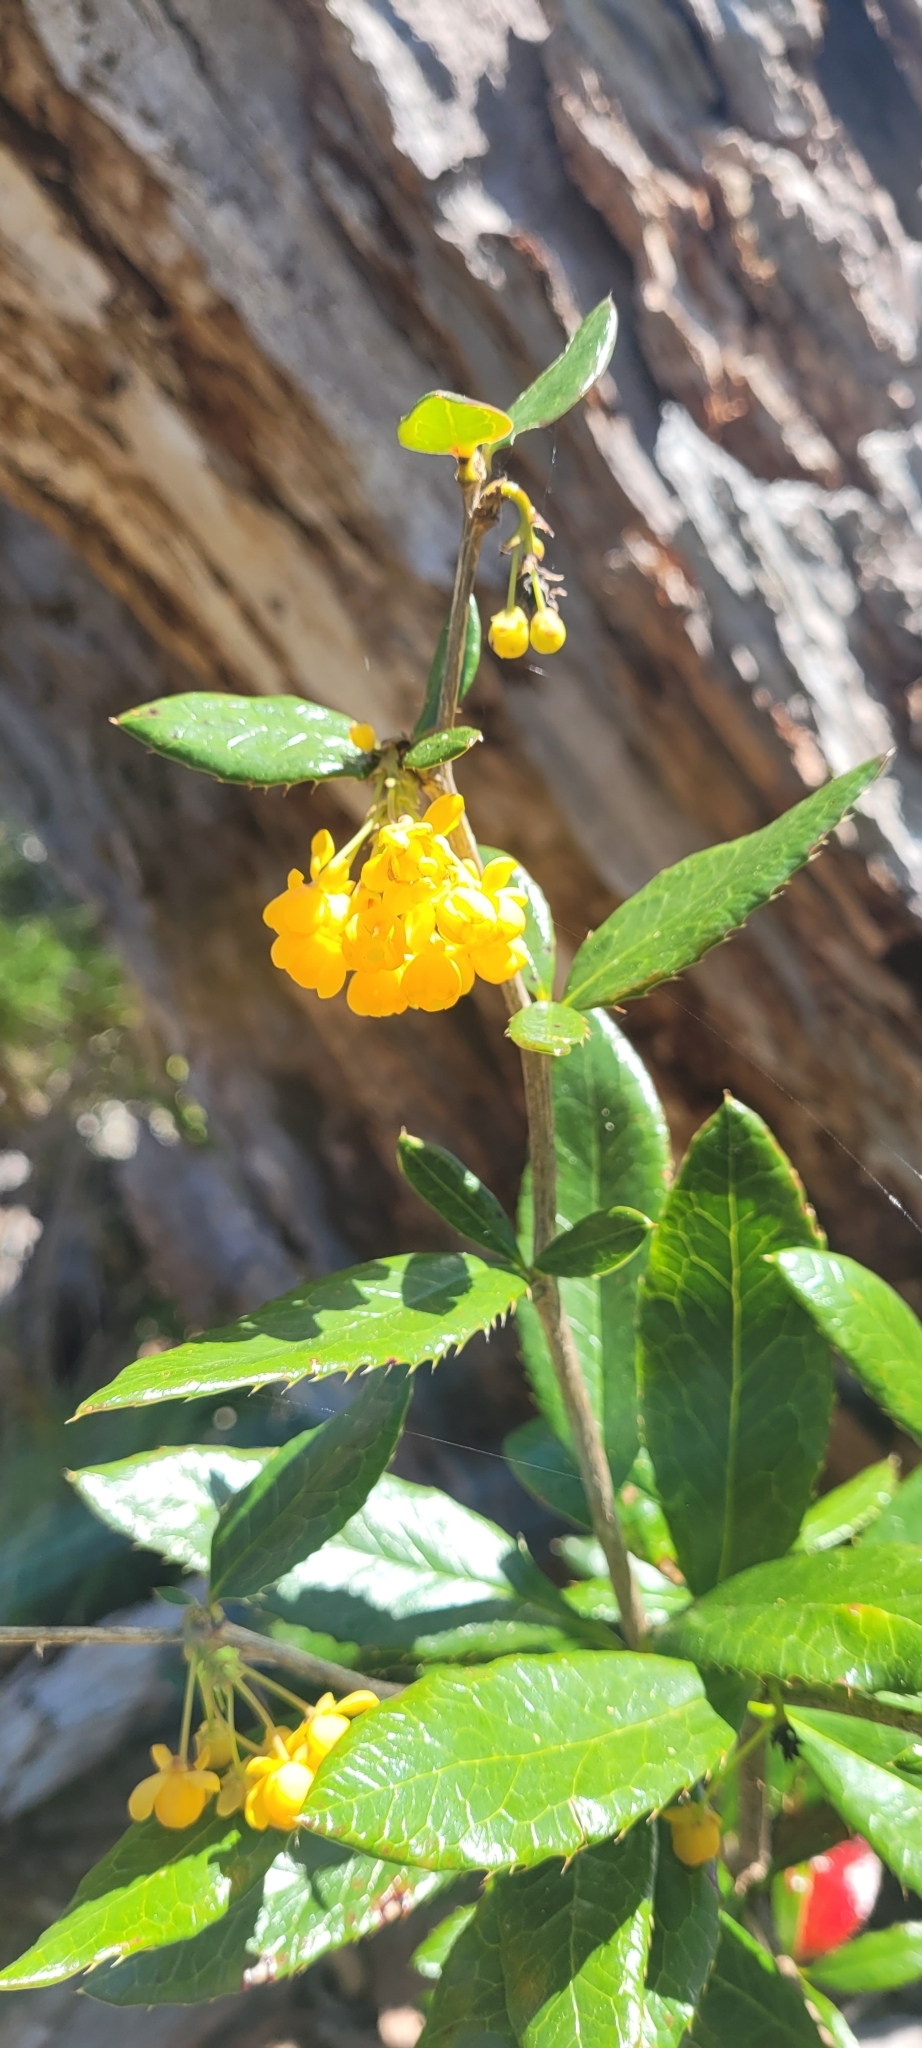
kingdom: Plantae
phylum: Tracheophyta
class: Magnoliopsida
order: Ranunculales
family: Berberidaceae
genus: Berberis
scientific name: Berberis pseudoilicifolia
